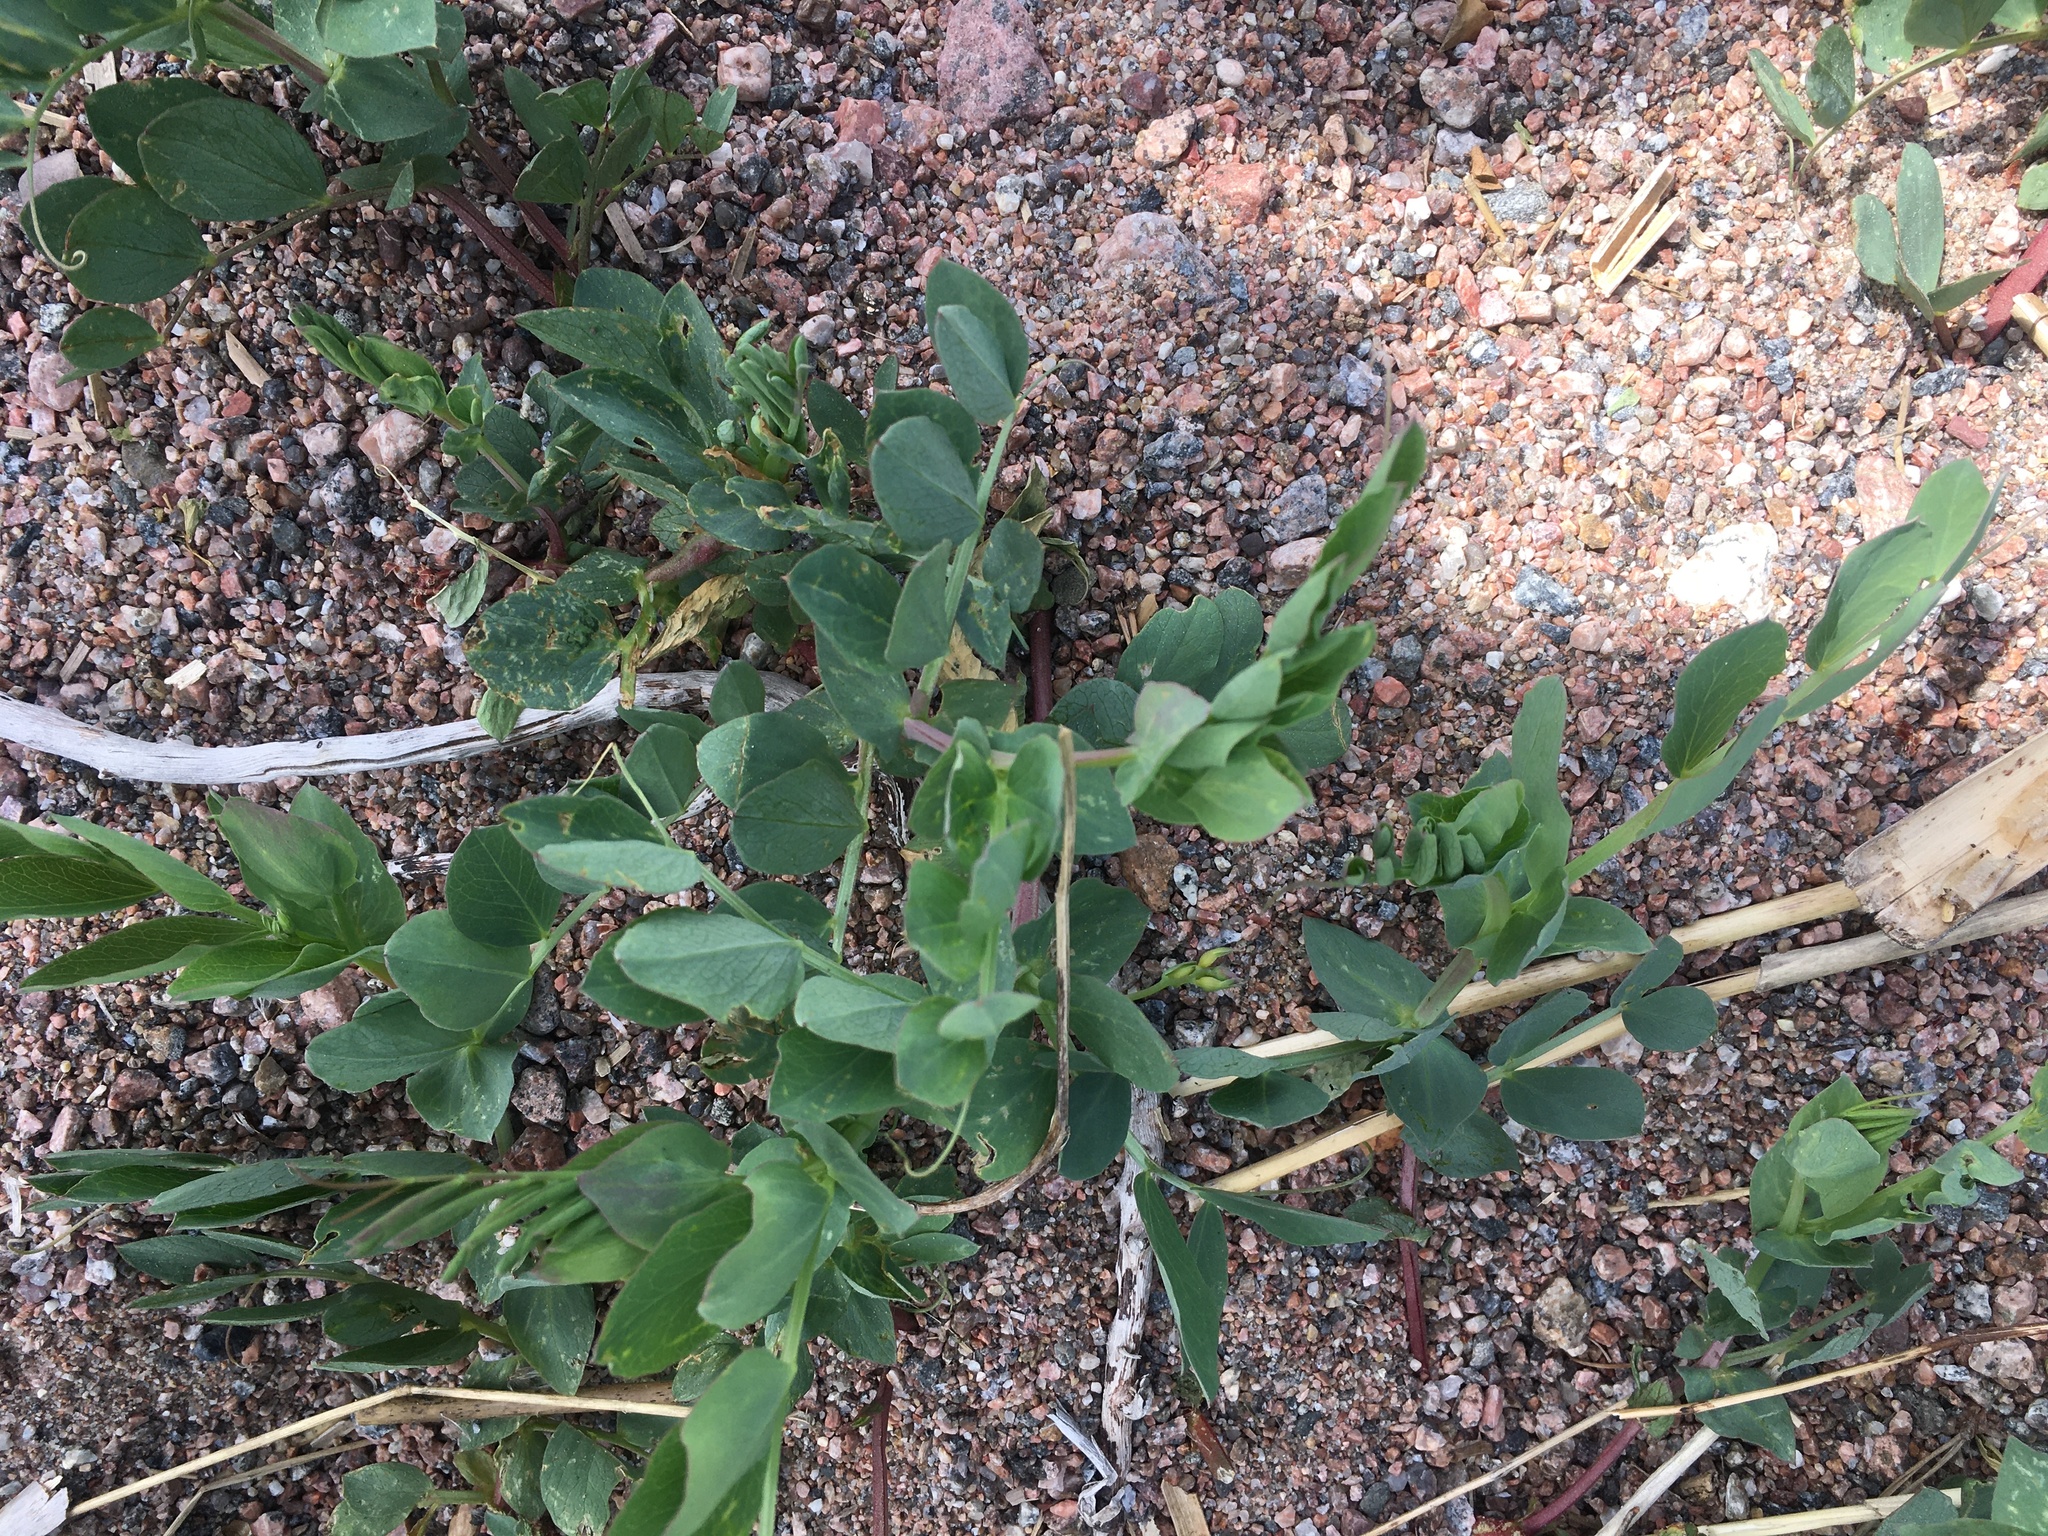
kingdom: Plantae
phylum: Tracheophyta
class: Magnoliopsida
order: Fabales
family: Fabaceae
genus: Lathyrus
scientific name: Lathyrus japonicus
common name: Sea pea
